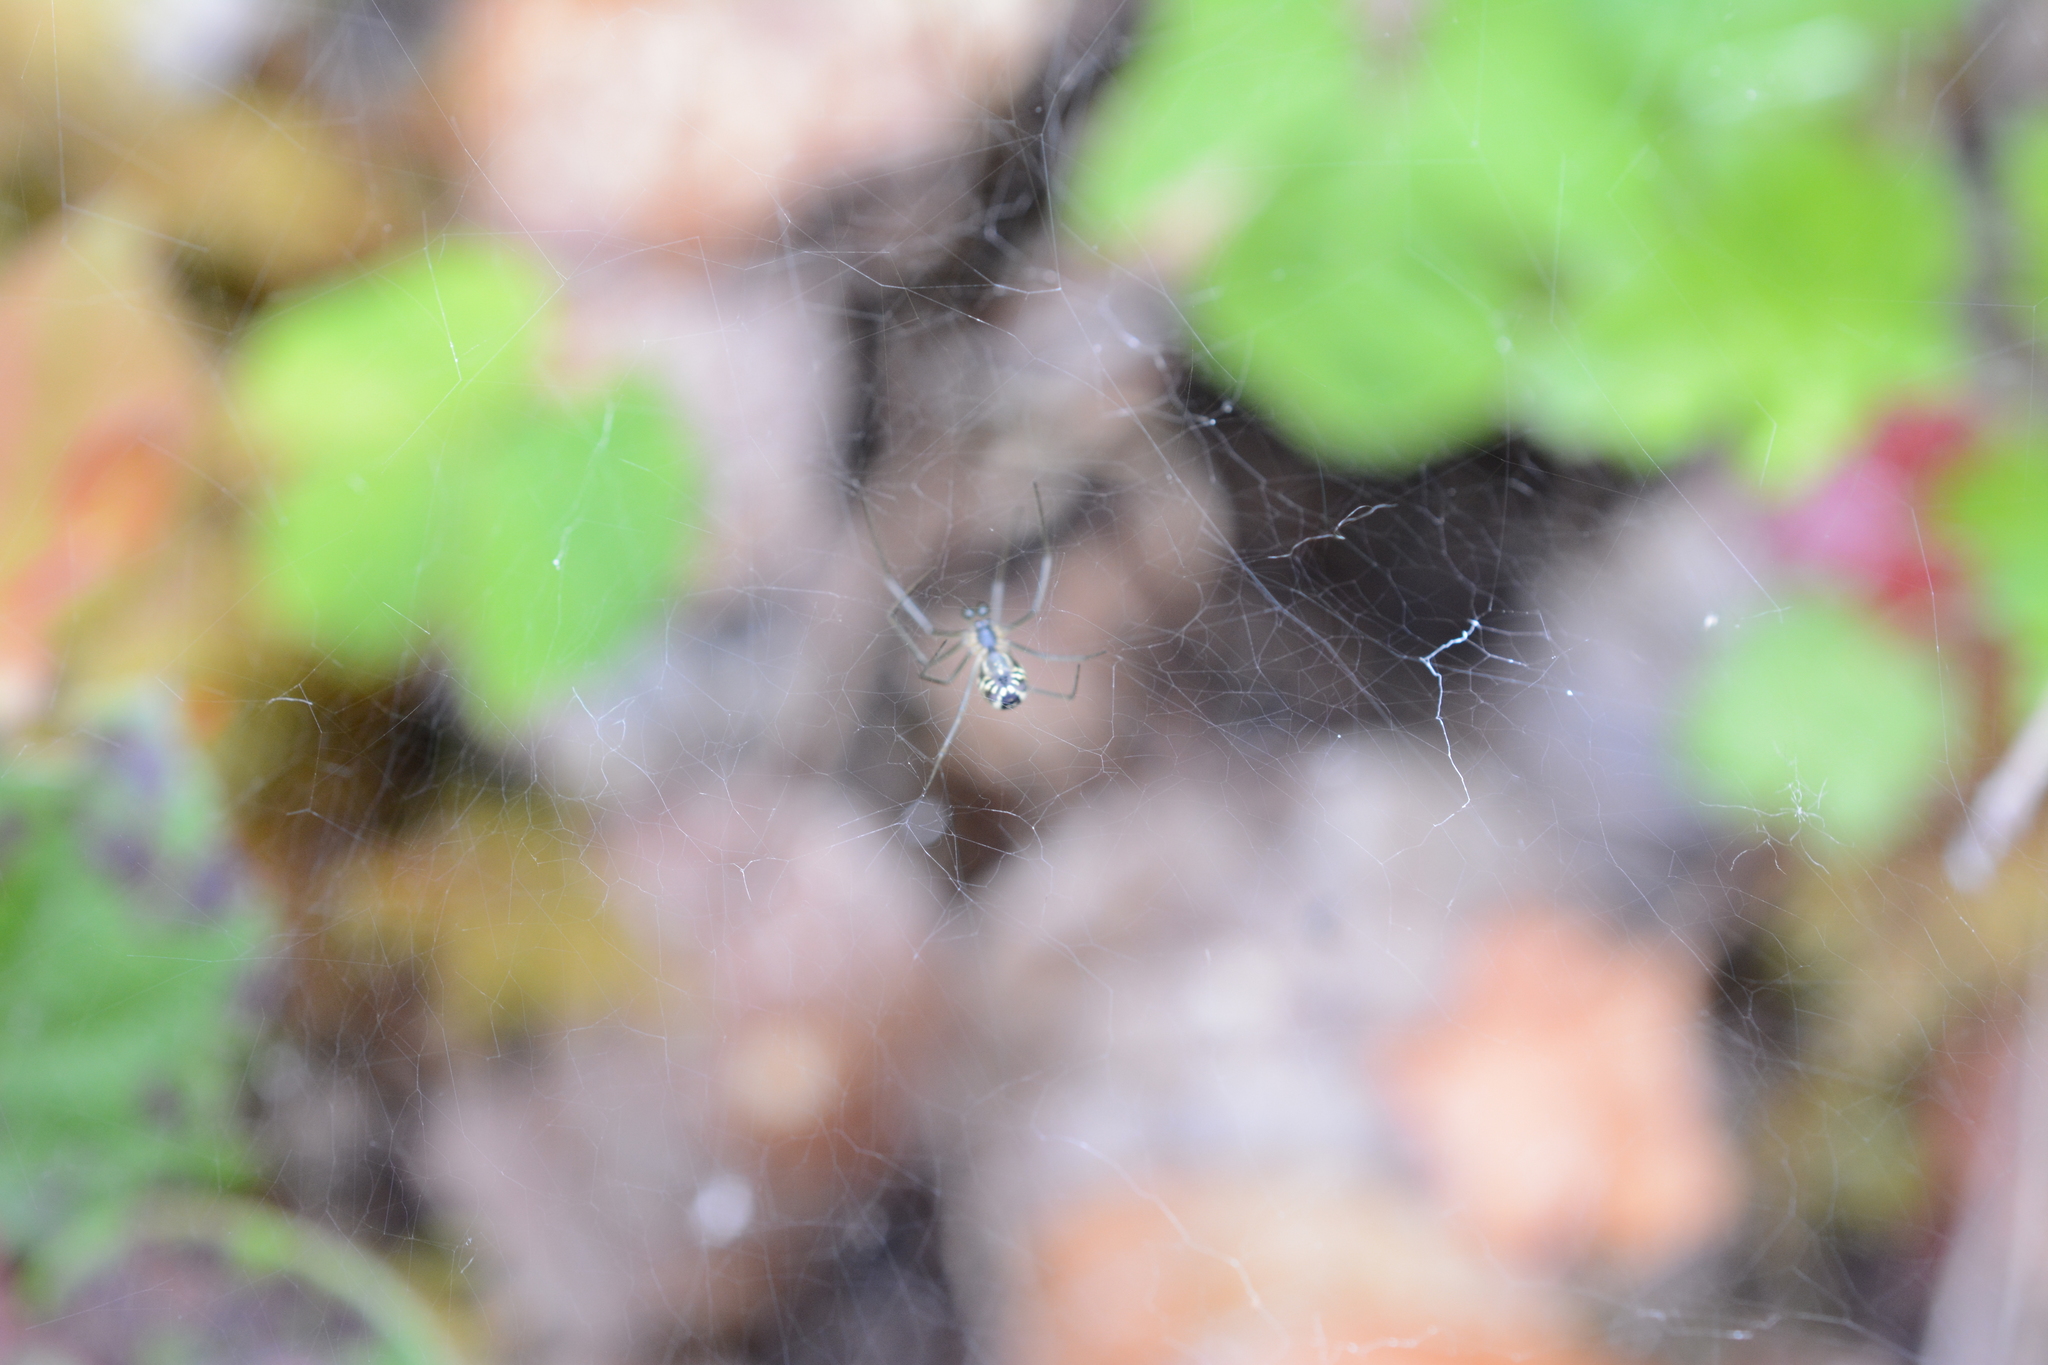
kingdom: Animalia
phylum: Arthropoda
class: Arachnida
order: Araneae
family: Linyphiidae
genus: Neriene
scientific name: Neriene litigiosa
